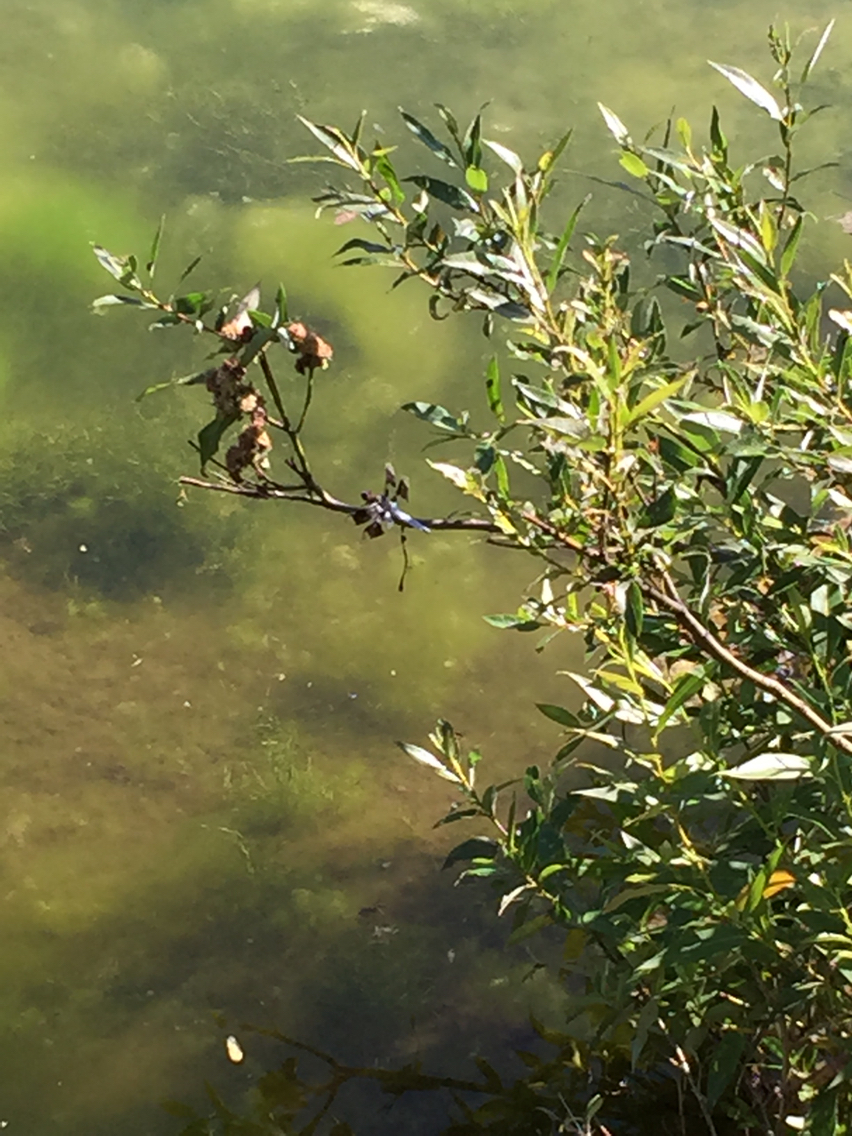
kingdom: Animalia
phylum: Arthropoda
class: Insecta
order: Odonata
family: Libellulidae
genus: Plathemis
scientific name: Plathemis lydia
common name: Common whitetail
